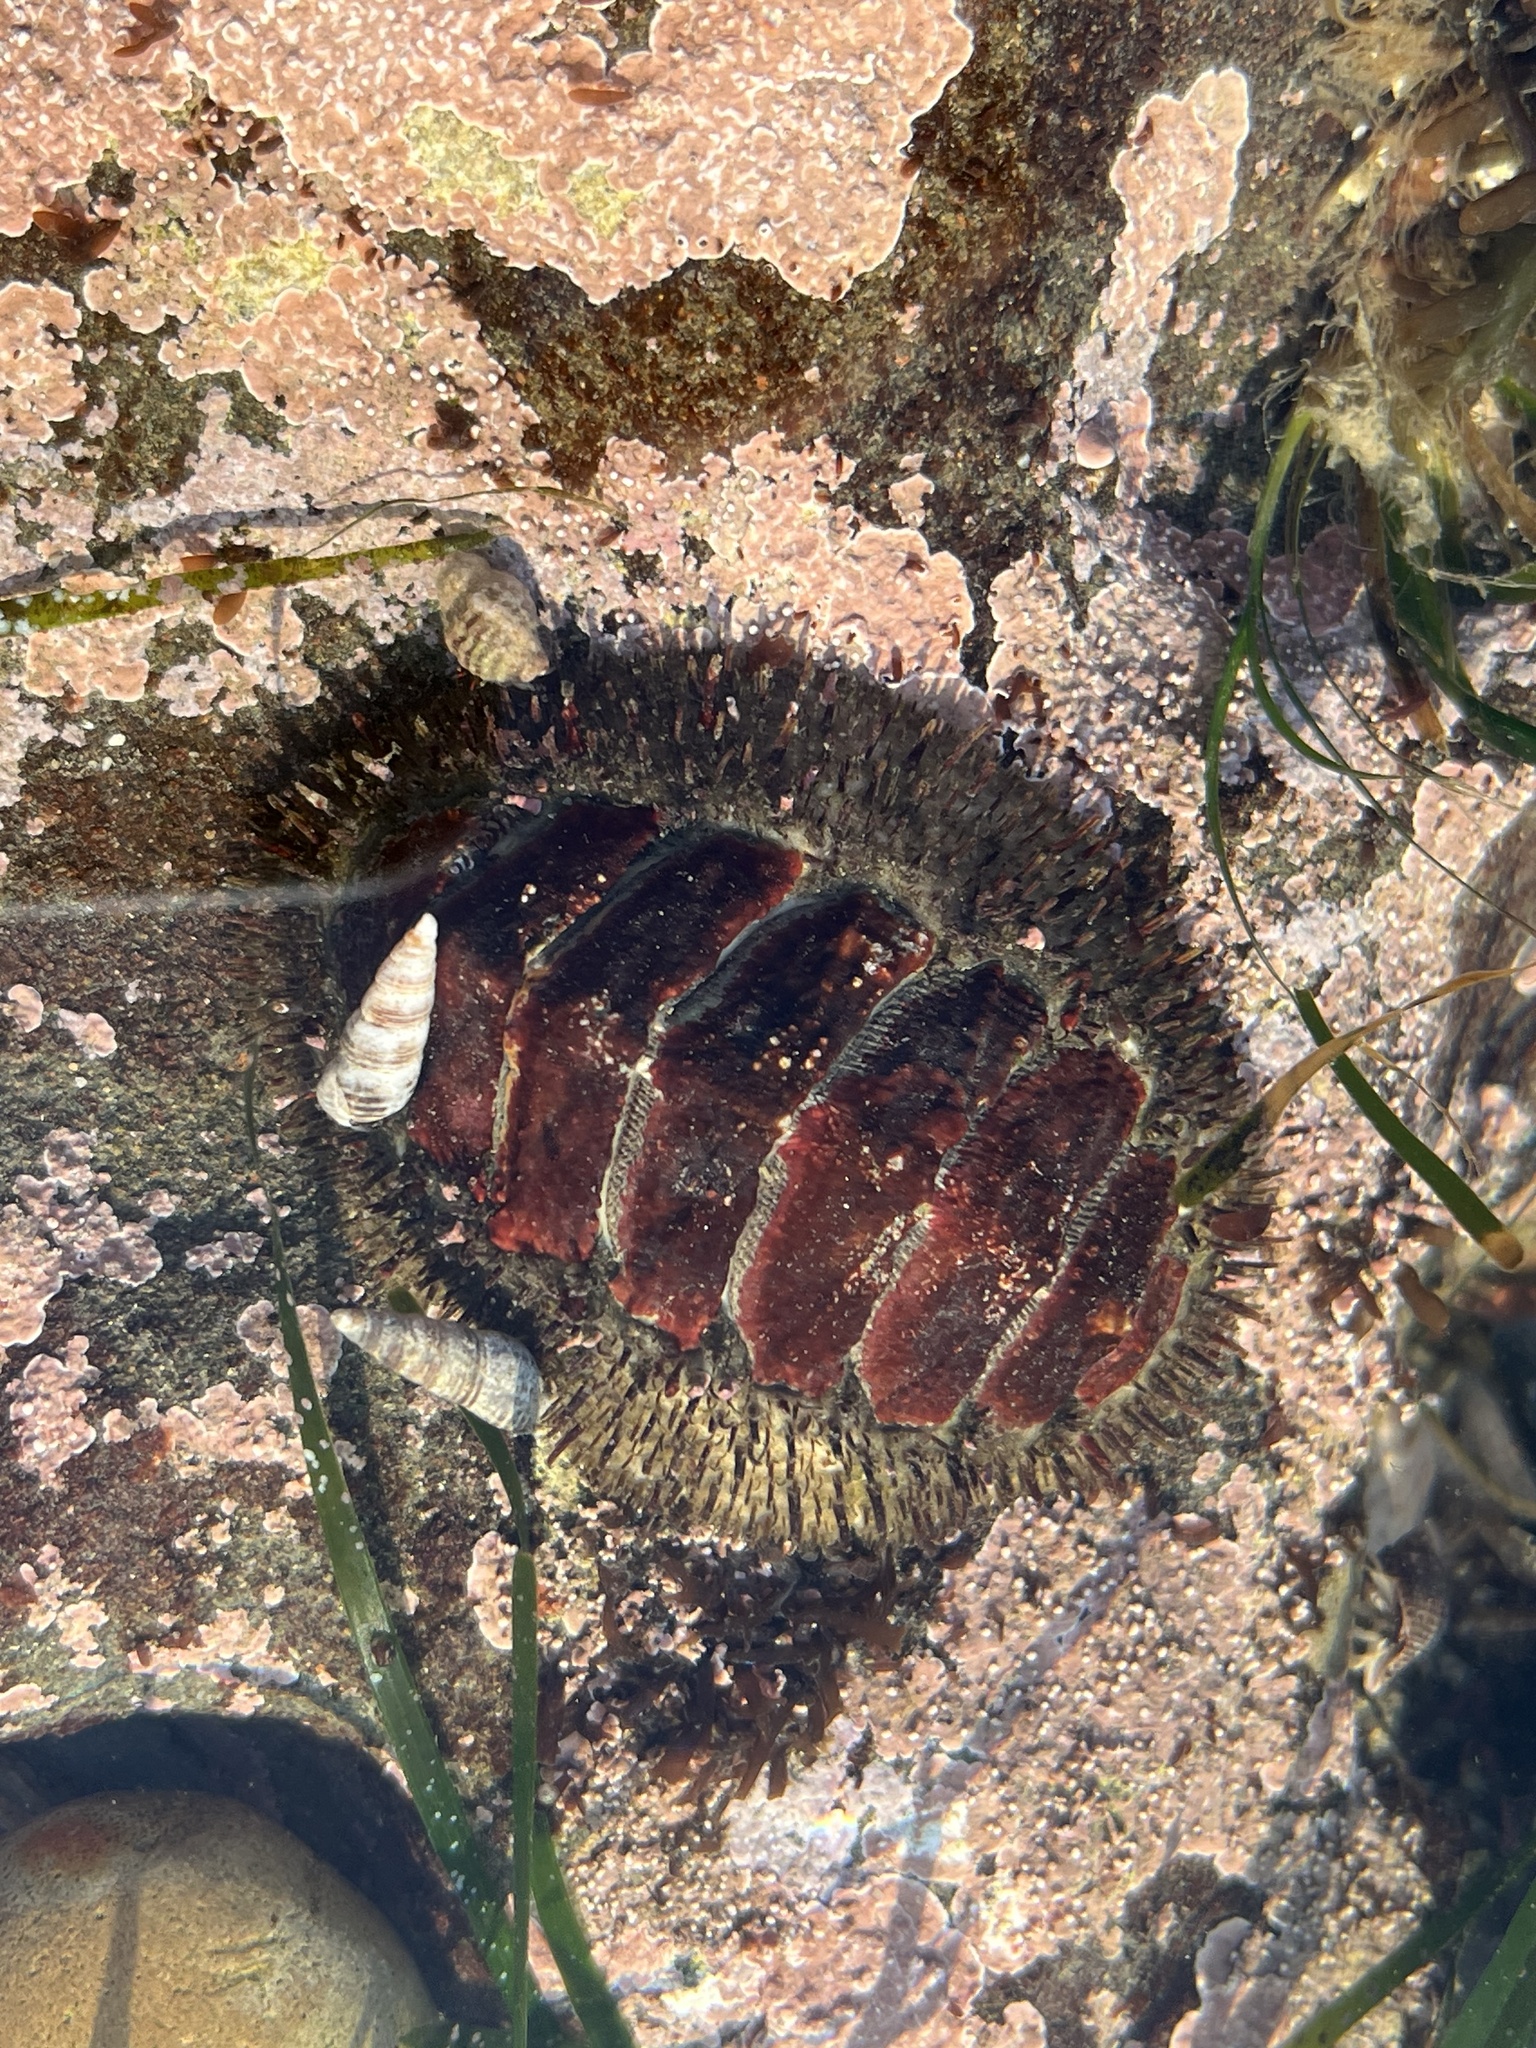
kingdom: Animalia
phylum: Mollusca
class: Polyplacophora
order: Chitonida
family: Mopaliidae
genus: Mopalia
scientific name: Mopalia muscosa
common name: Mossy chiton
